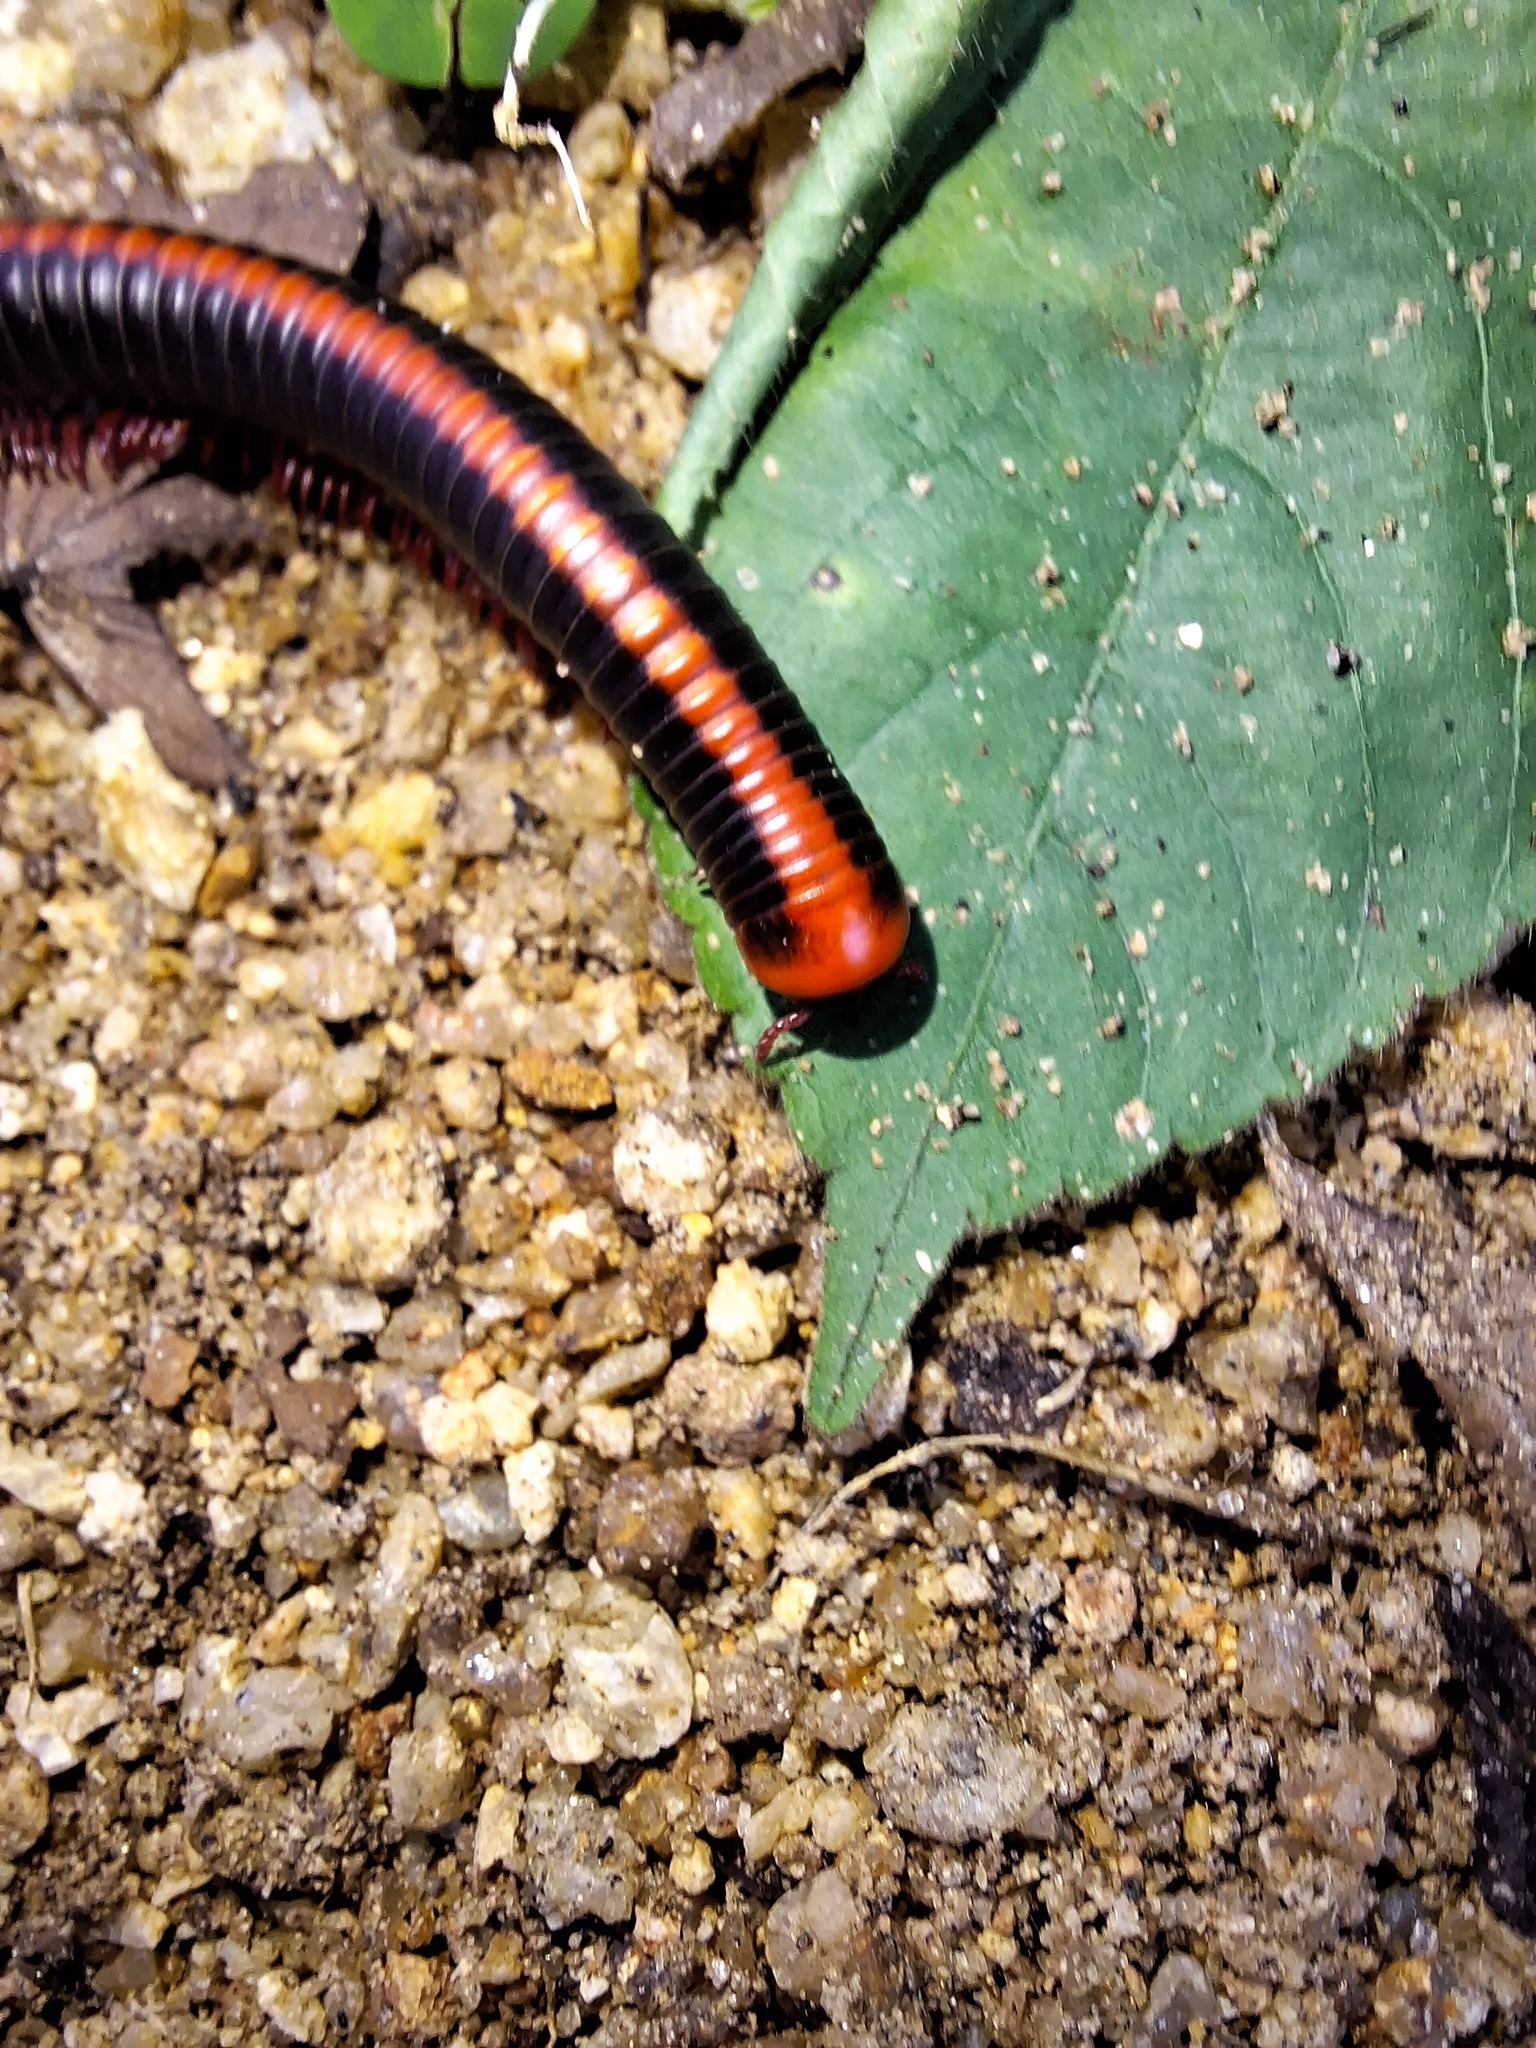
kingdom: Animalia
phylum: Arthropoda
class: Diplopoda
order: Spirobolida
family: Pachybolidae
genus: Xenobolus
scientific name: Xenobolus carnifex
